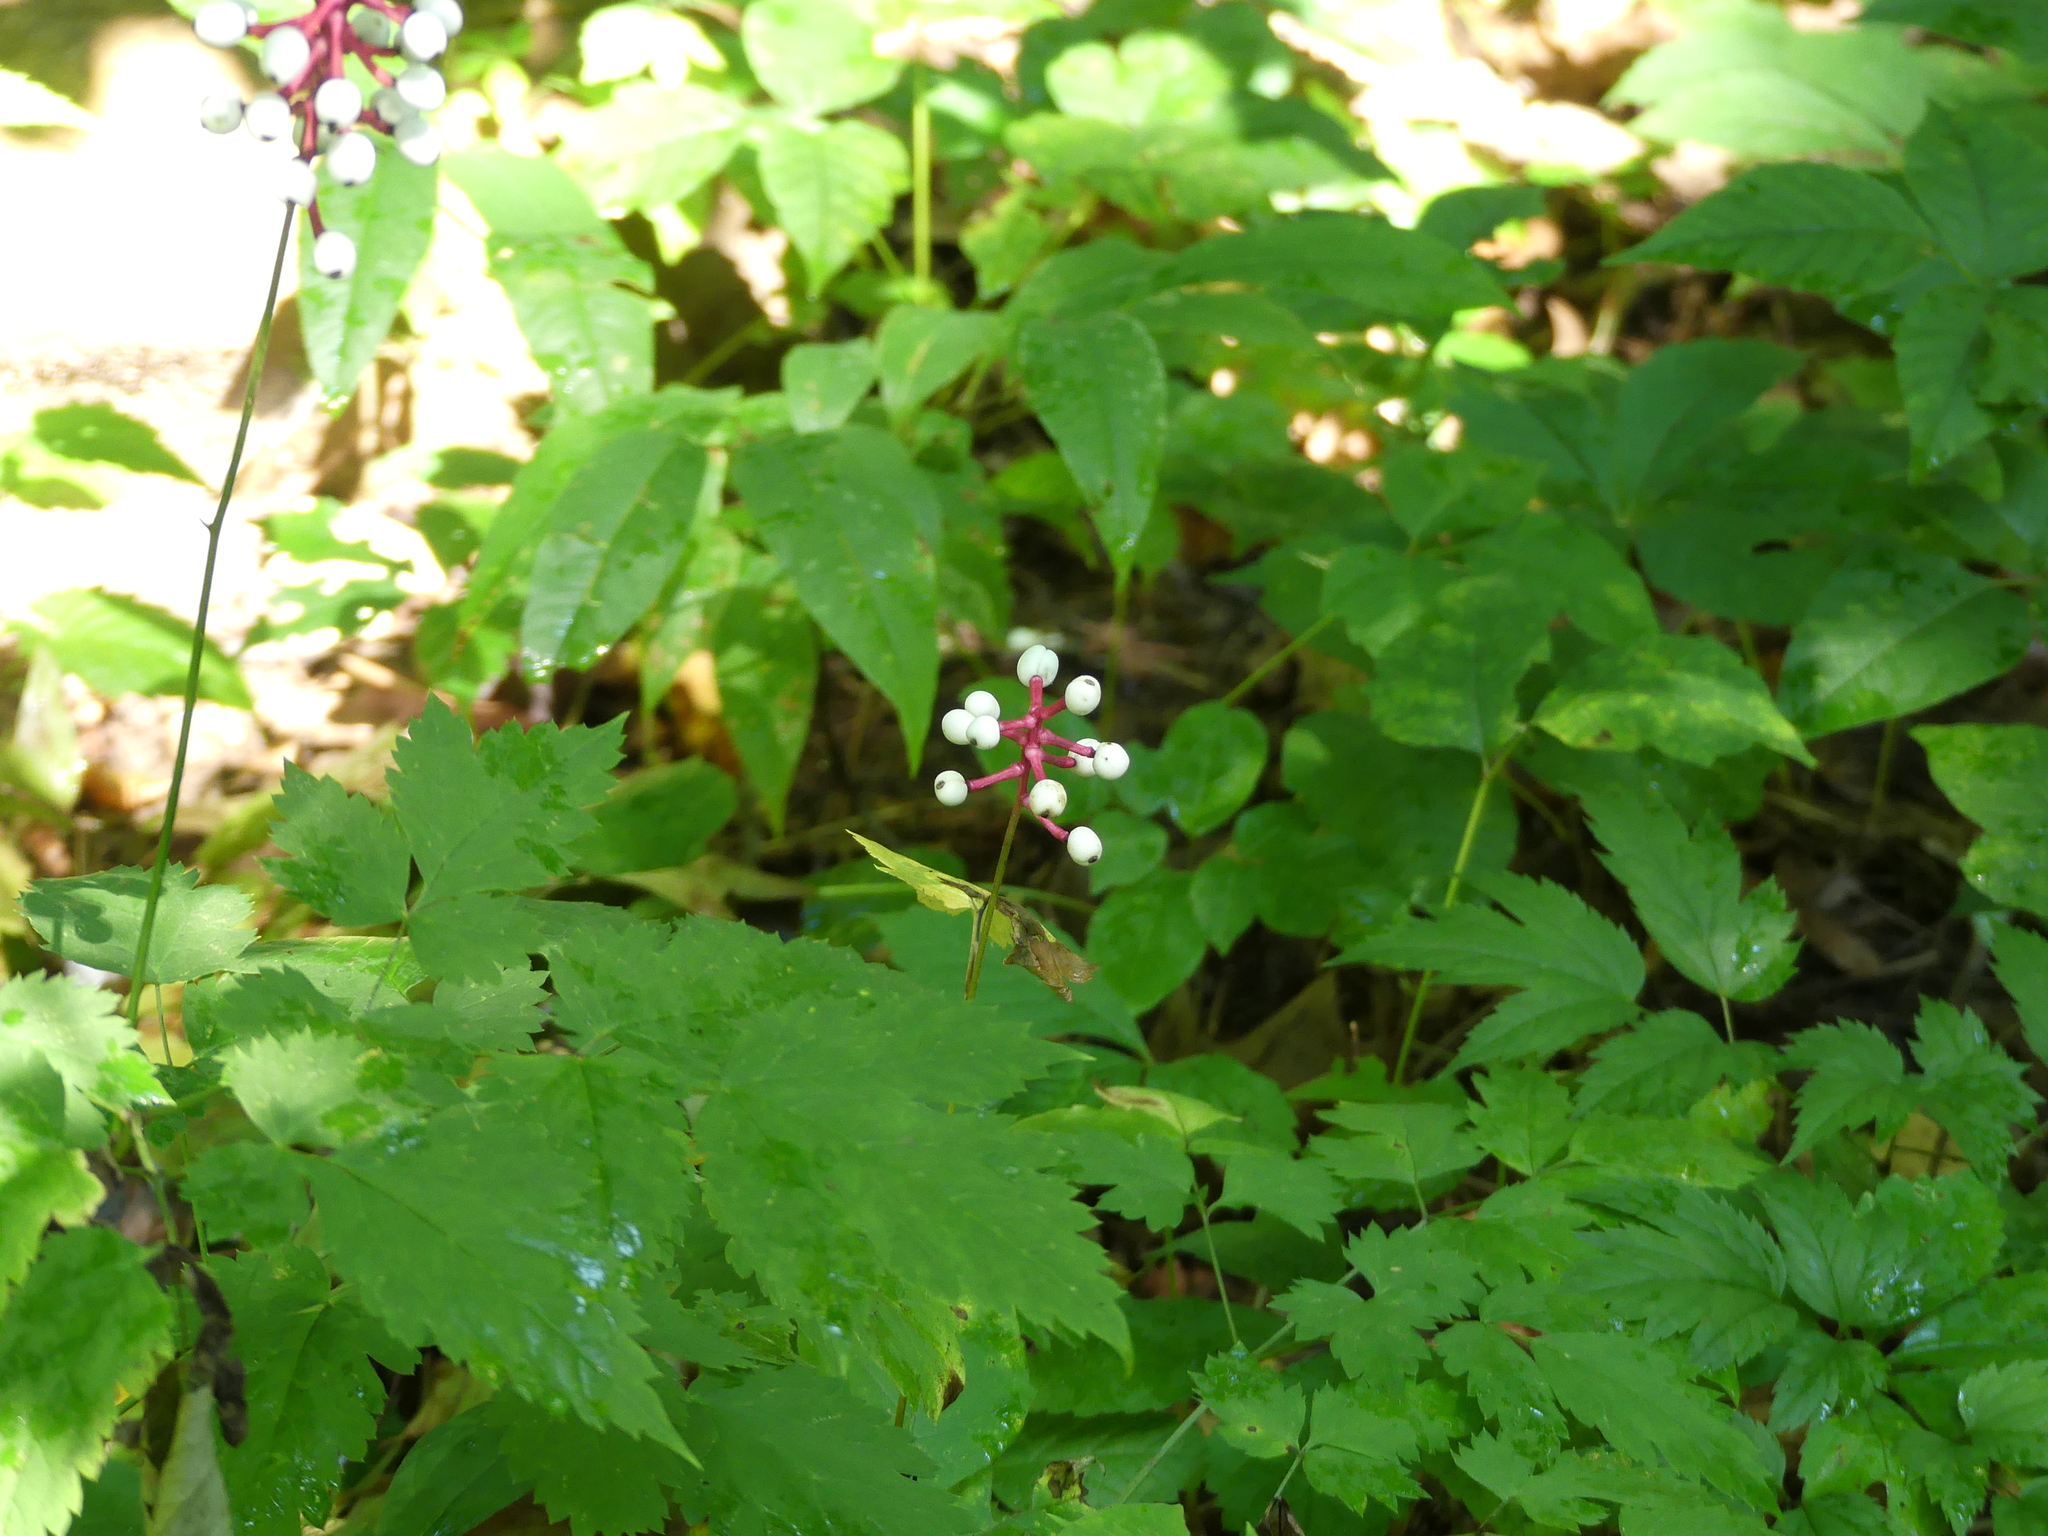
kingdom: Plantae
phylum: Tracheophyta
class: Magnoliopsida
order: Ranunculales
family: Ranunculaceae
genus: Actaea
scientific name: Actaea pachypoda
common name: Doll's-eyes
